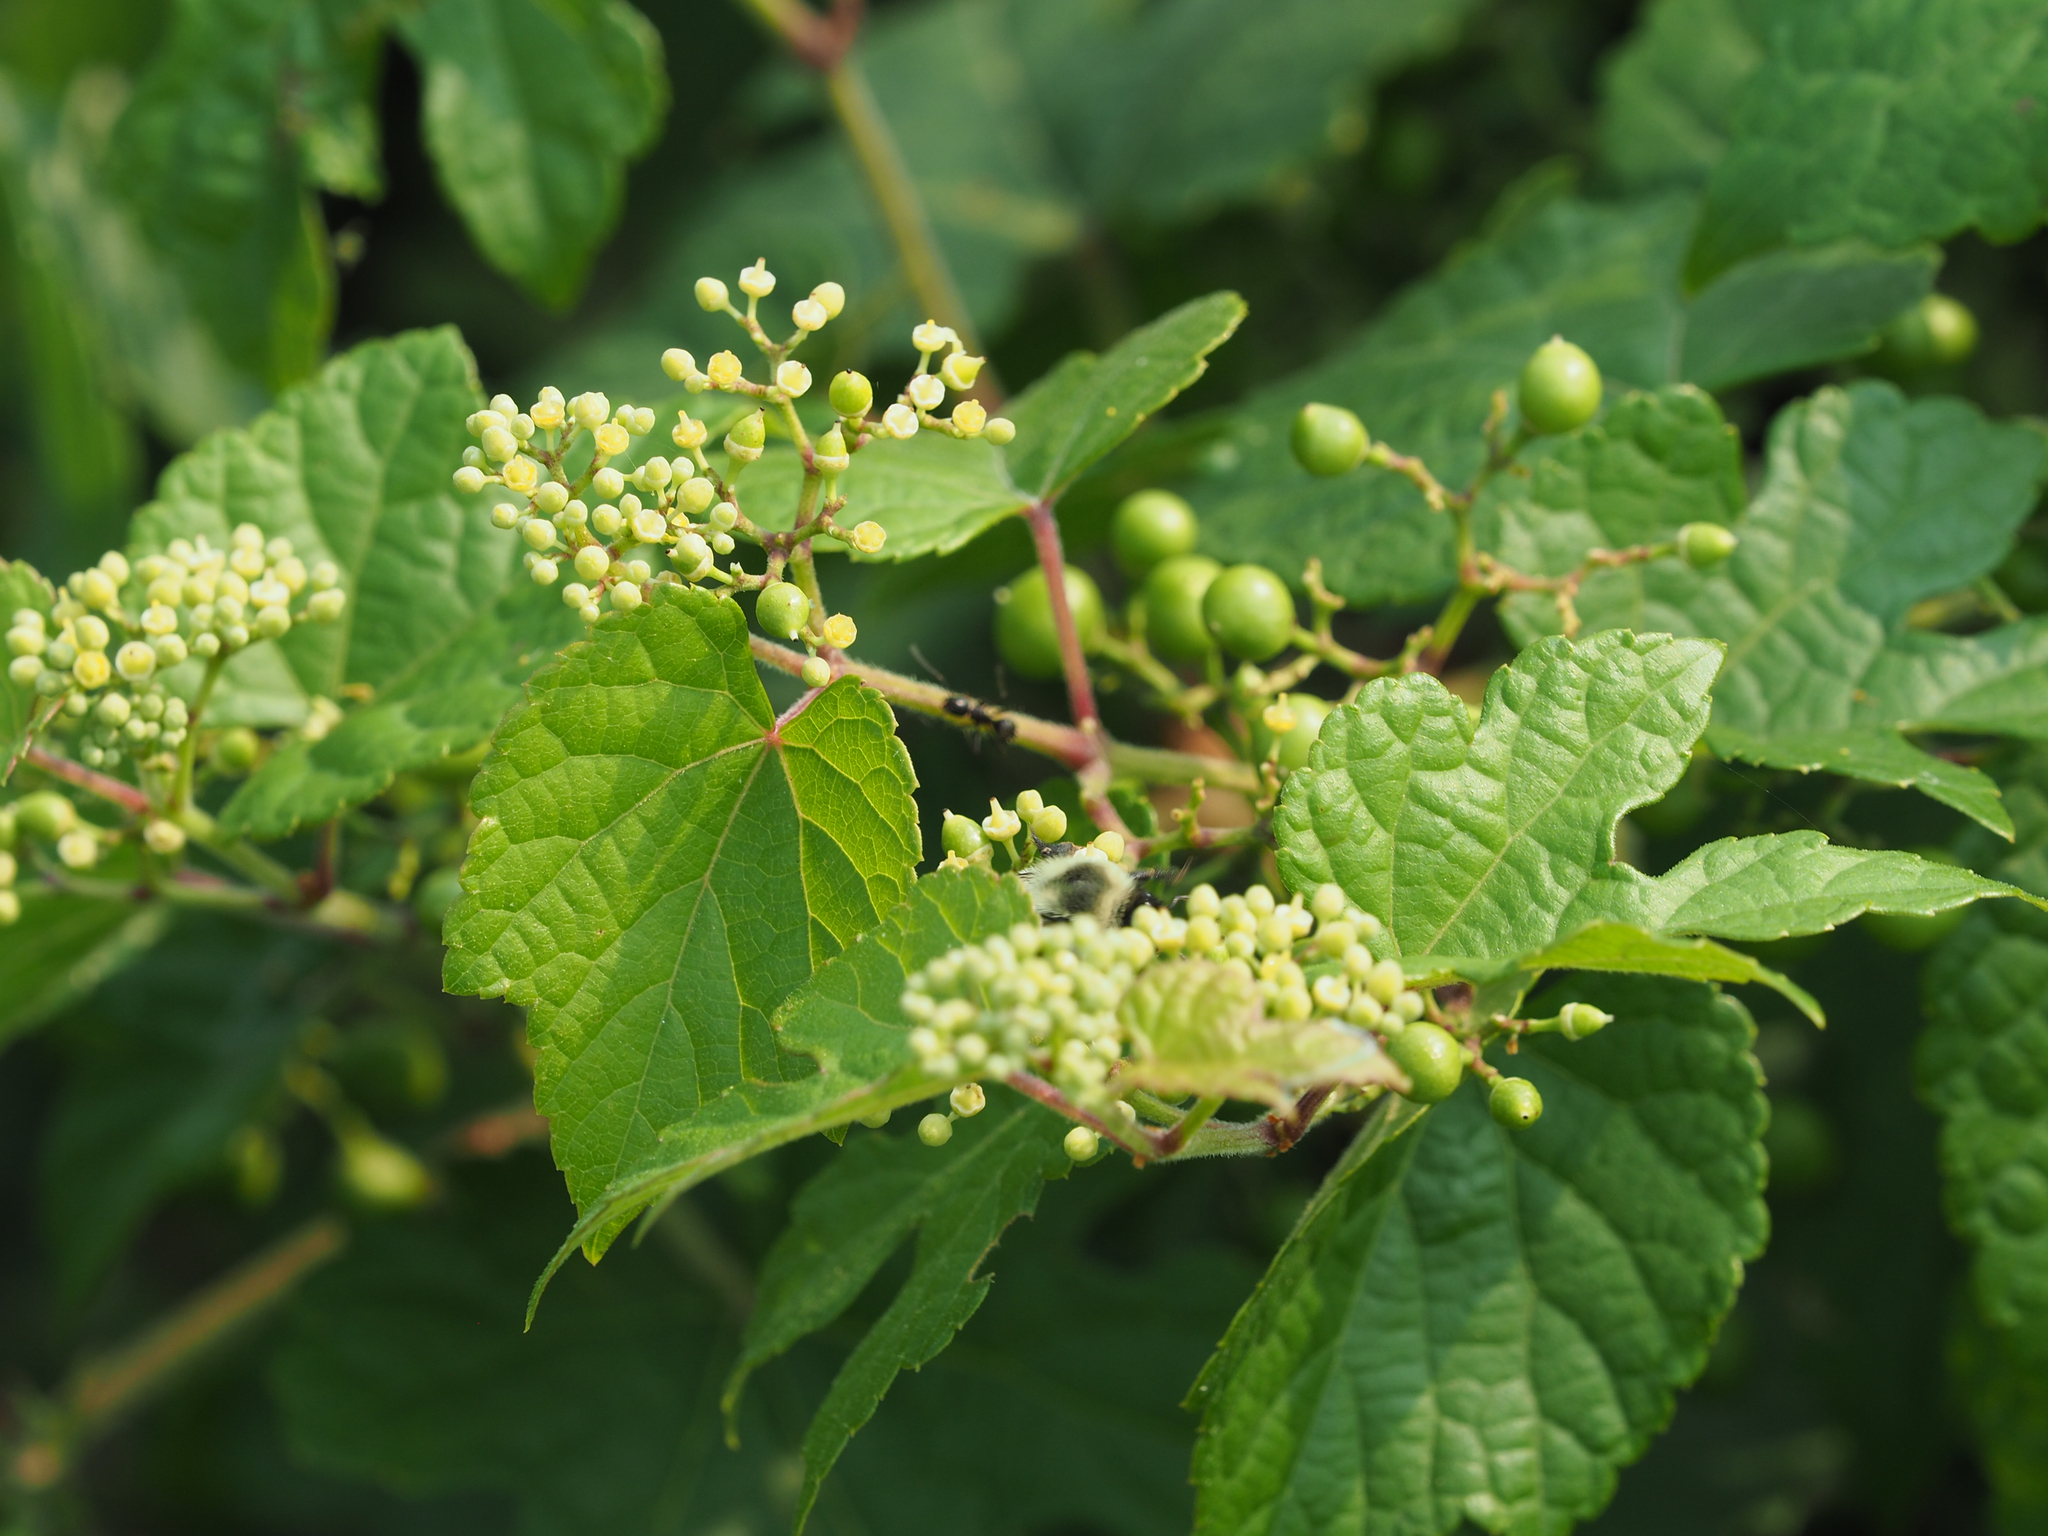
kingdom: Plantae
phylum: Tracheophyta
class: Magnoliopsida
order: Vitales
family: Vitaceae
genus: Ampelopsis
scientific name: Ampelopsis glandulosa
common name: Amur peppervine
